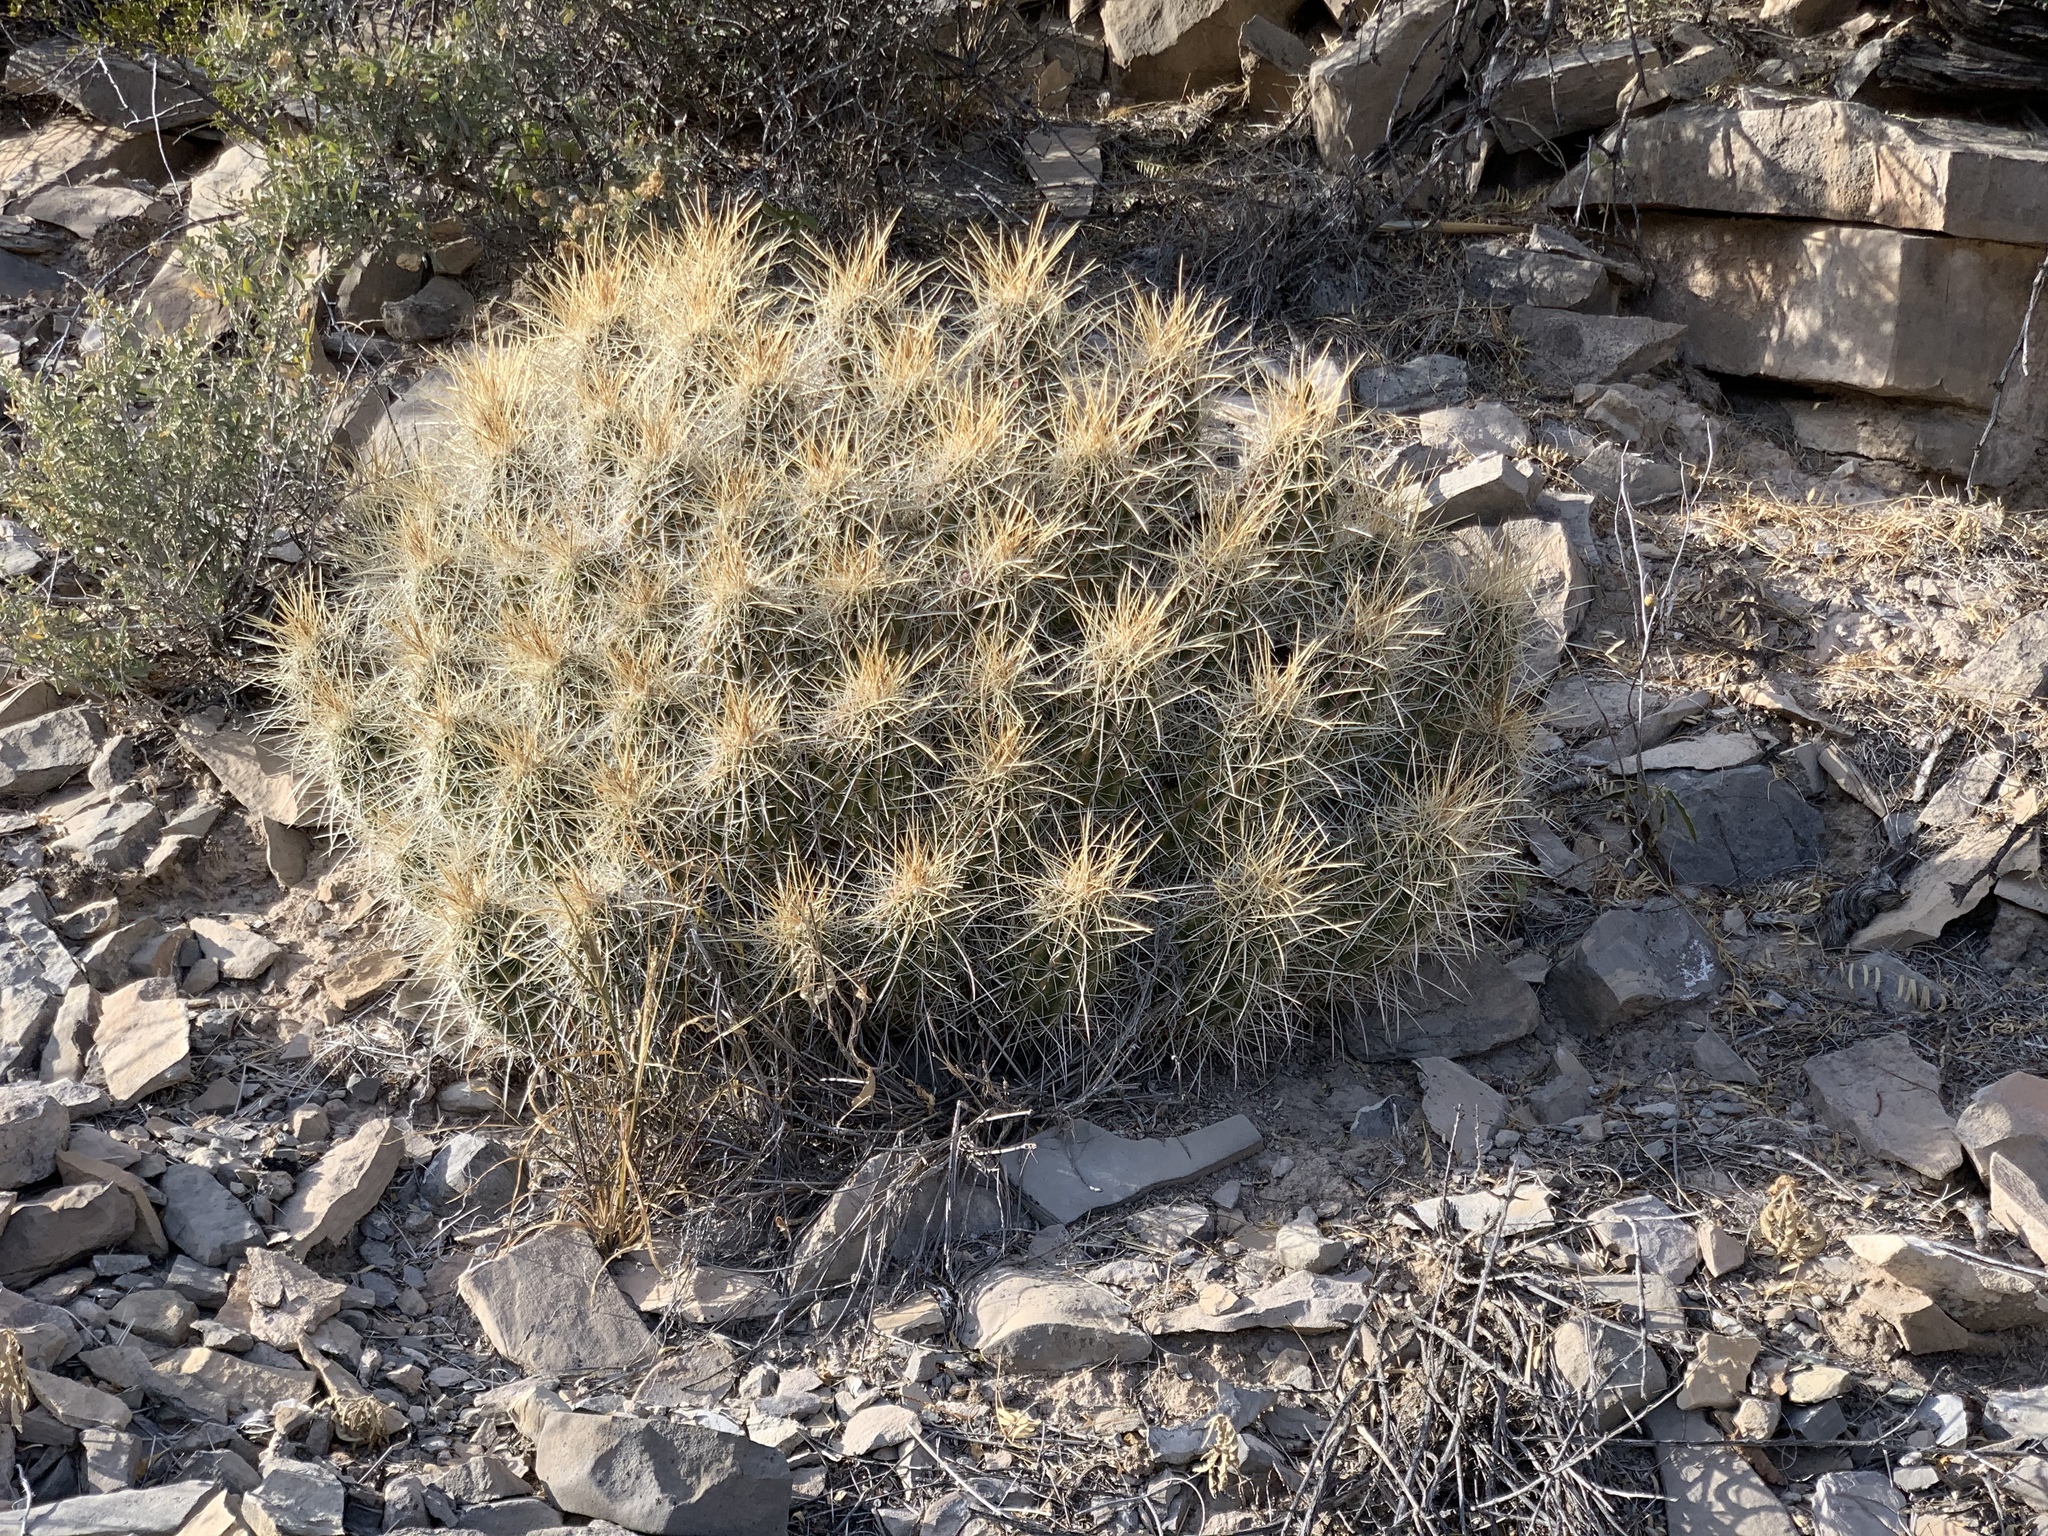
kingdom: Plantae
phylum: Tracheophyta
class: Magnoliopsida
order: Caryophyllales
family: Cactaceae
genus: Echinocereus
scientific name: Echinocereus stramineus
